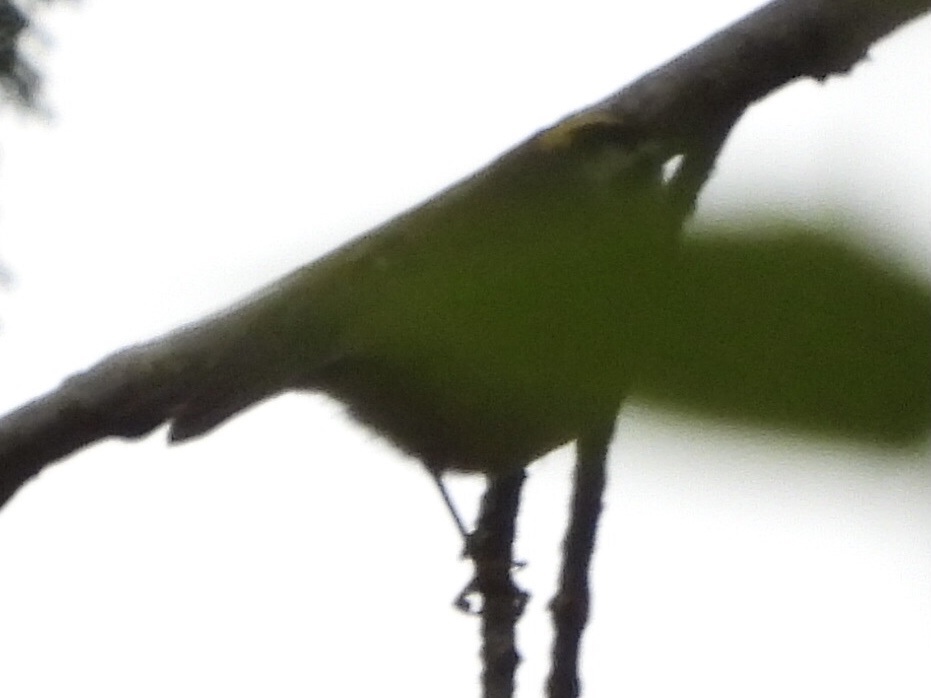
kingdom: Animalia
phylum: Chordata
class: Aves
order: Passeriformes
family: Regulidae
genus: Regulus
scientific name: Regulus satrapa
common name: Golden-crowned kinglet
